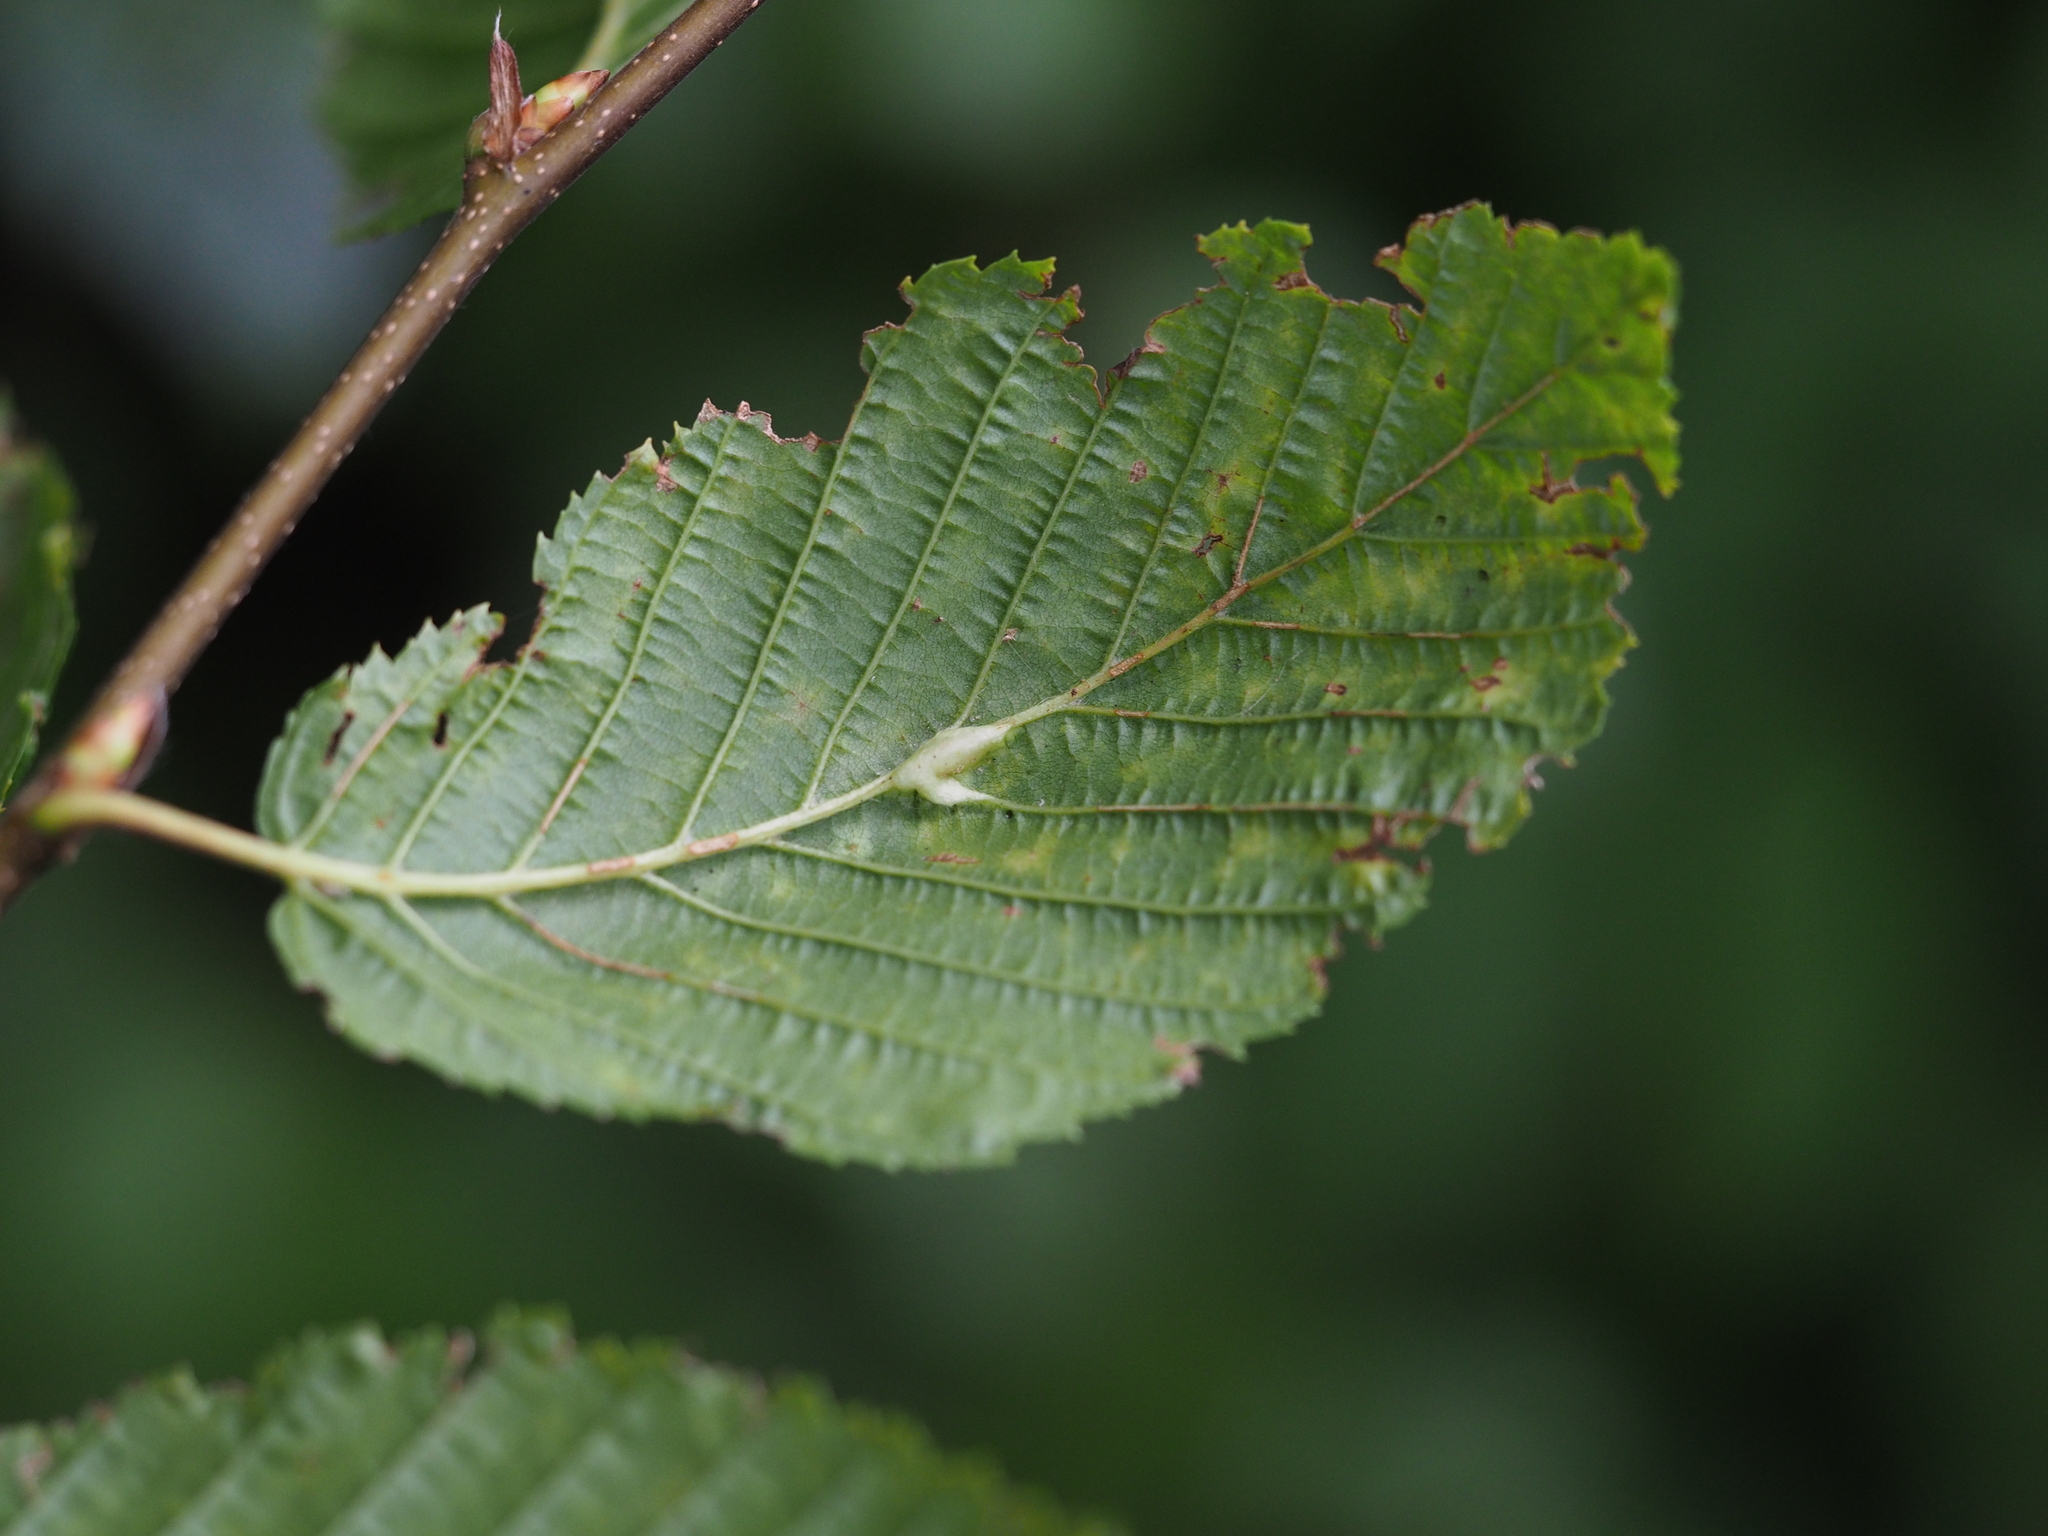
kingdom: Animalia
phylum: Arthropoda
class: Insecta
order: Diptera
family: Cecidomyiidae
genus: Zygiobia
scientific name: Zygiobia carpini
